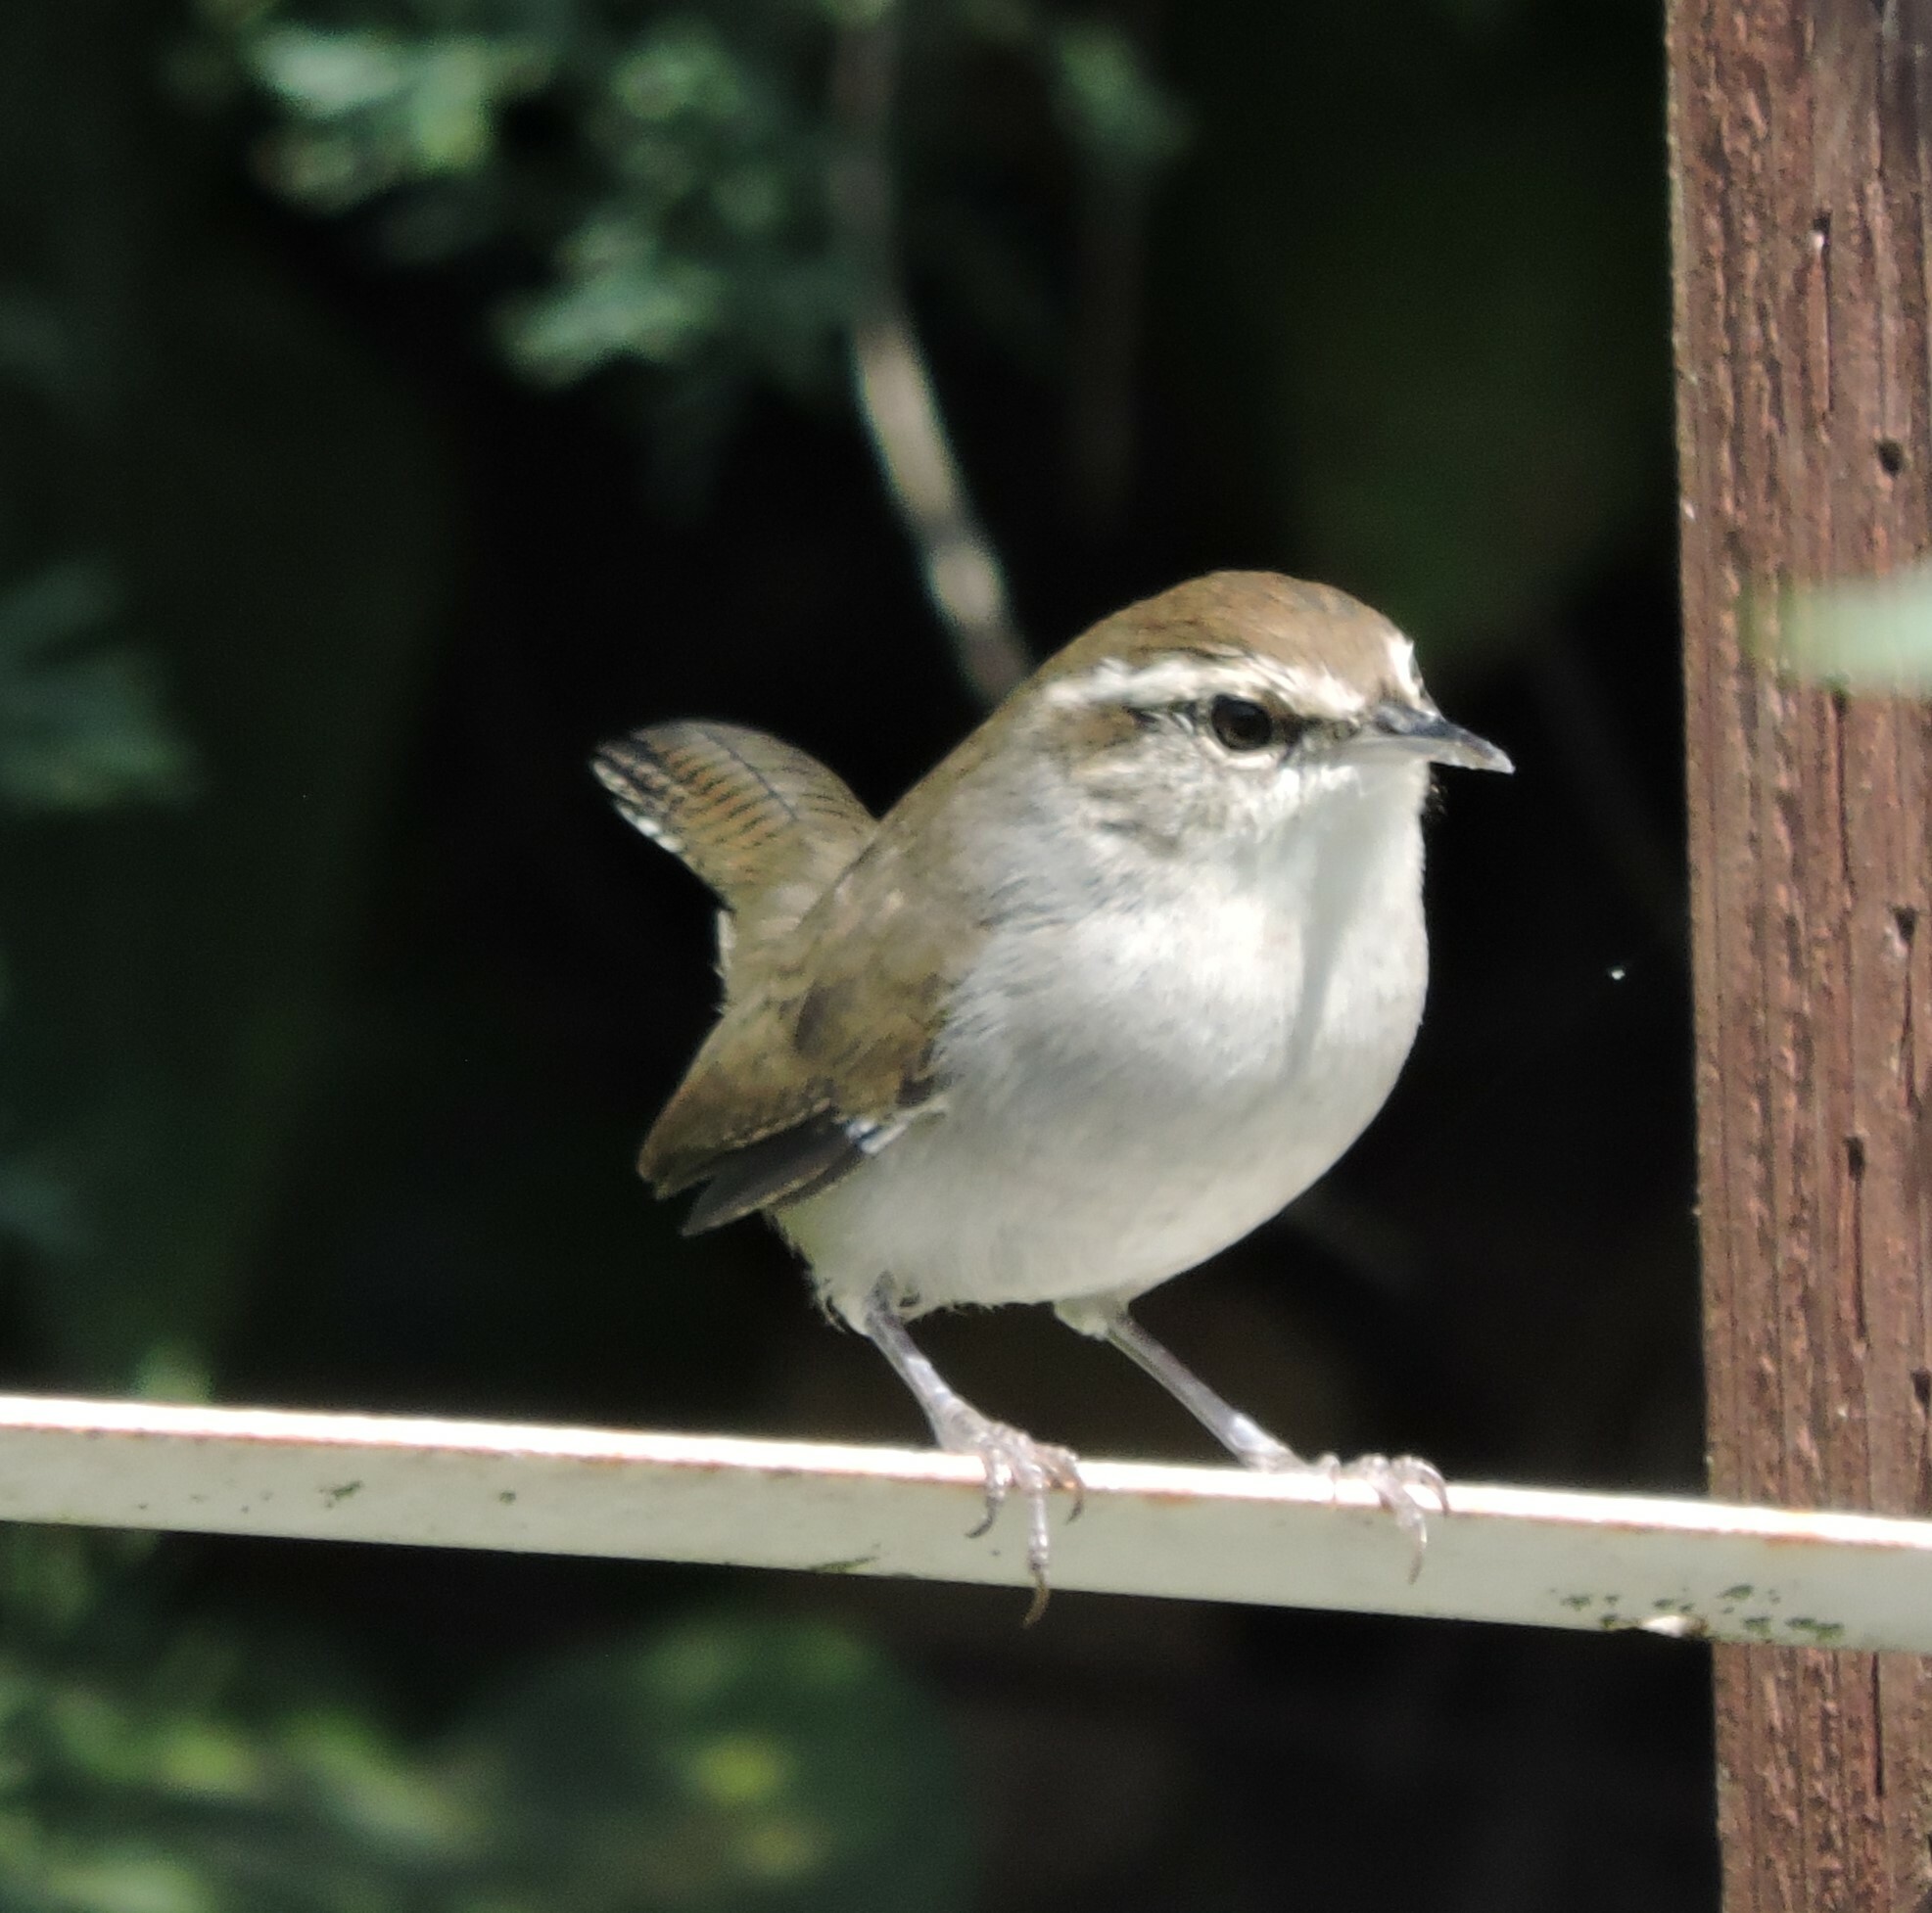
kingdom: Animalia
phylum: Chordata
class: Aves
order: Passeriformes
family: Troglodytidae
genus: Thryomanes
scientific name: Thryomanes bewickii
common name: Bewick's wren
